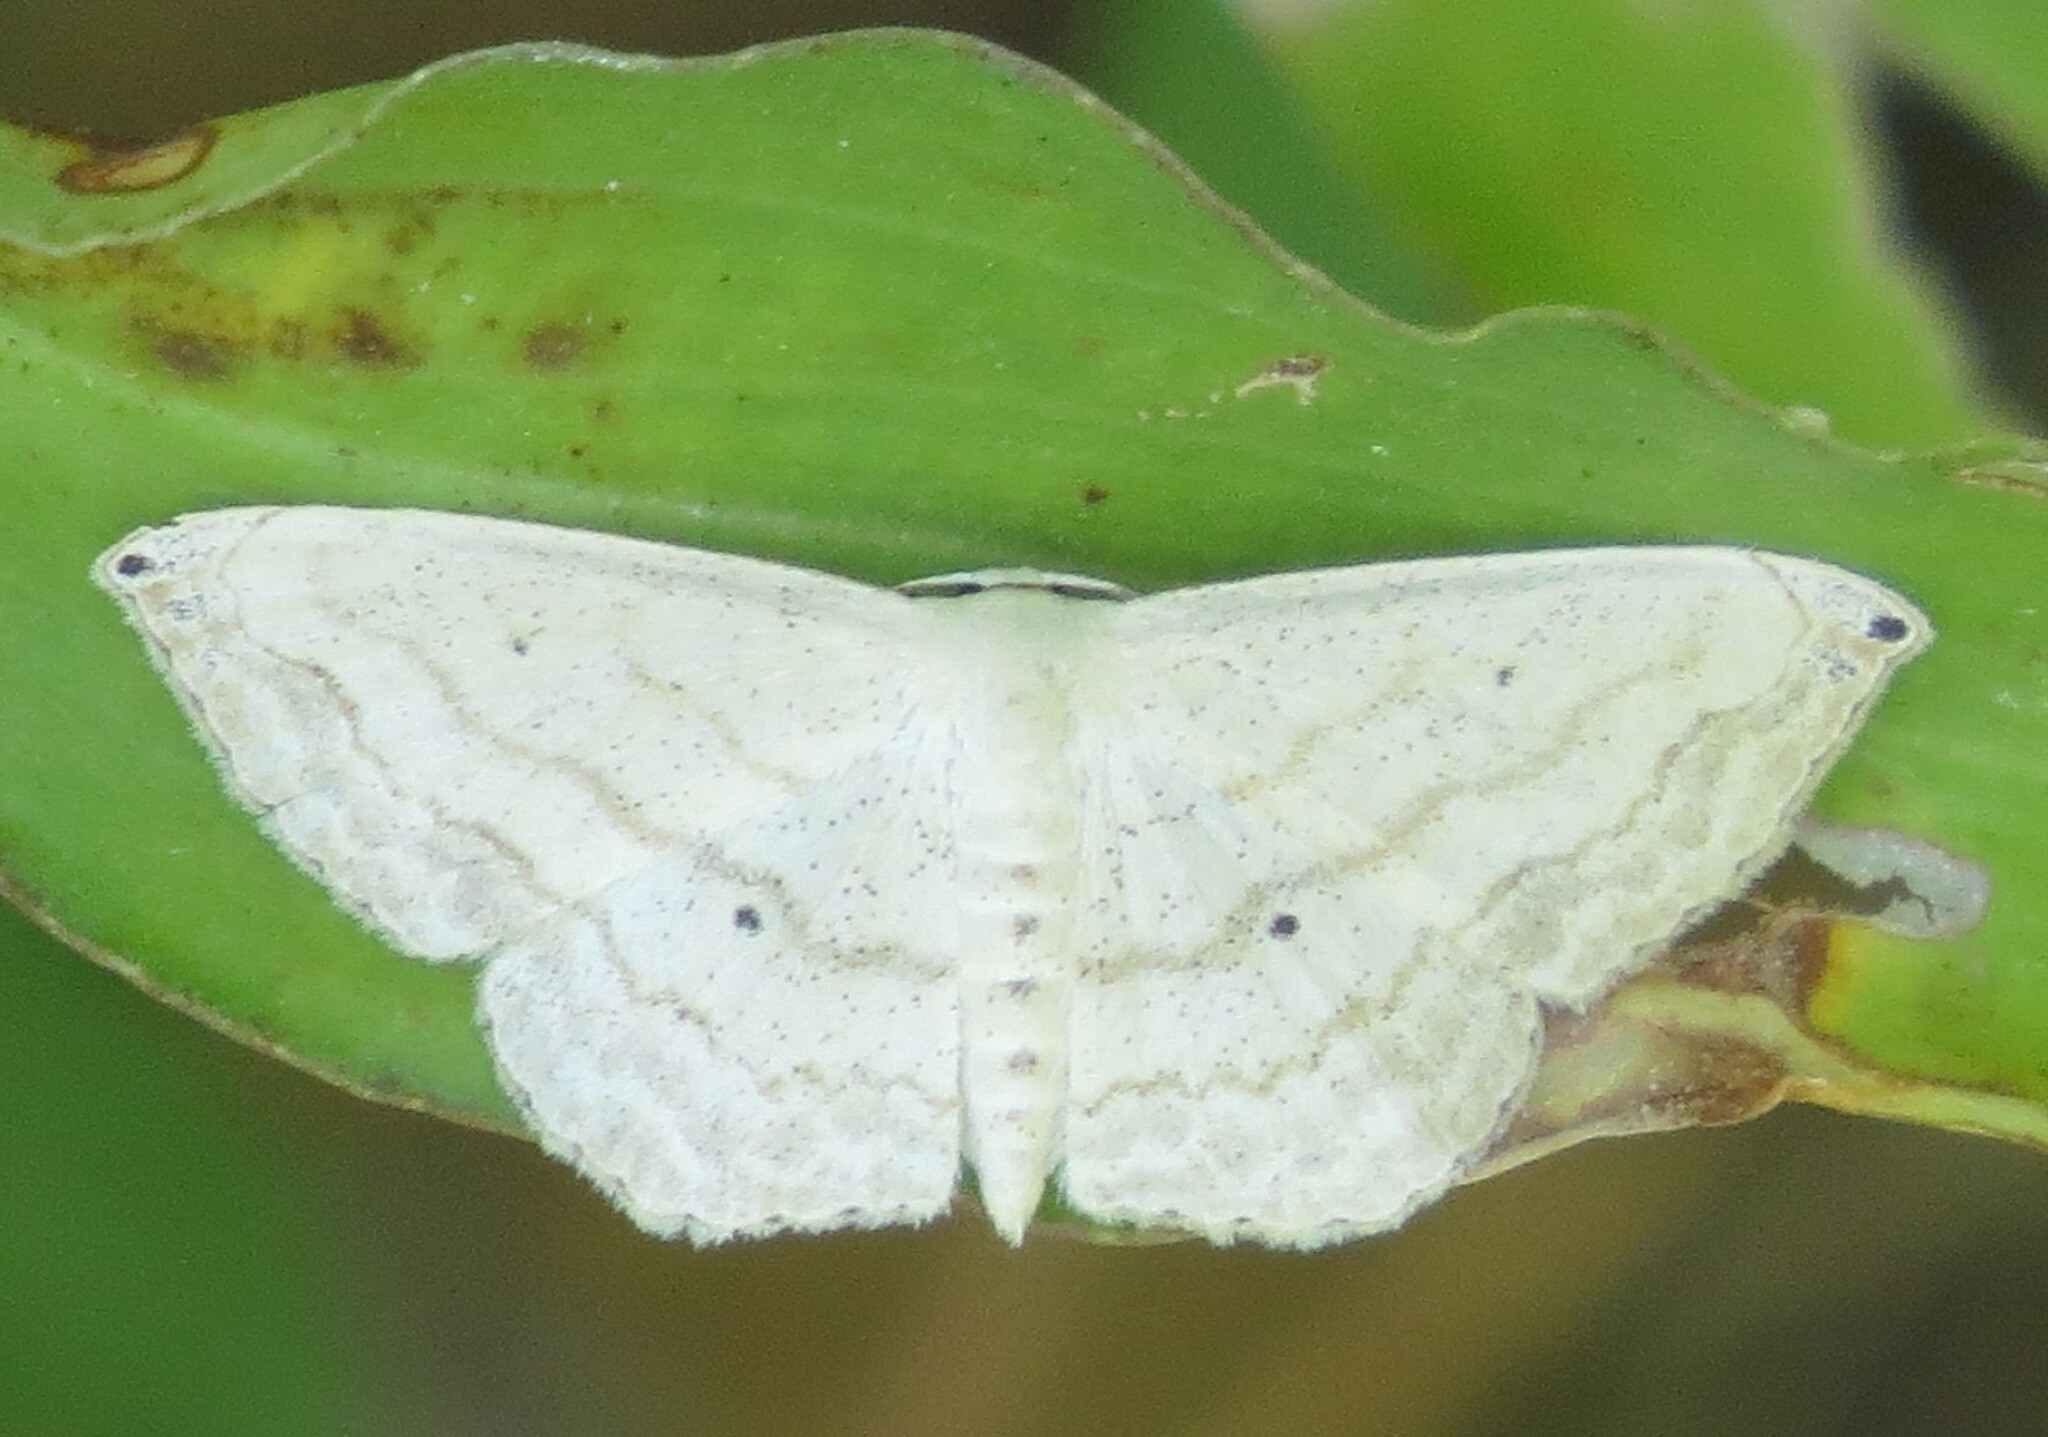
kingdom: Animalia
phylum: Arthropoda
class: Insecta
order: Lepidoptera
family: Geometridae
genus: Scopula
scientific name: Scopula umbilicata
